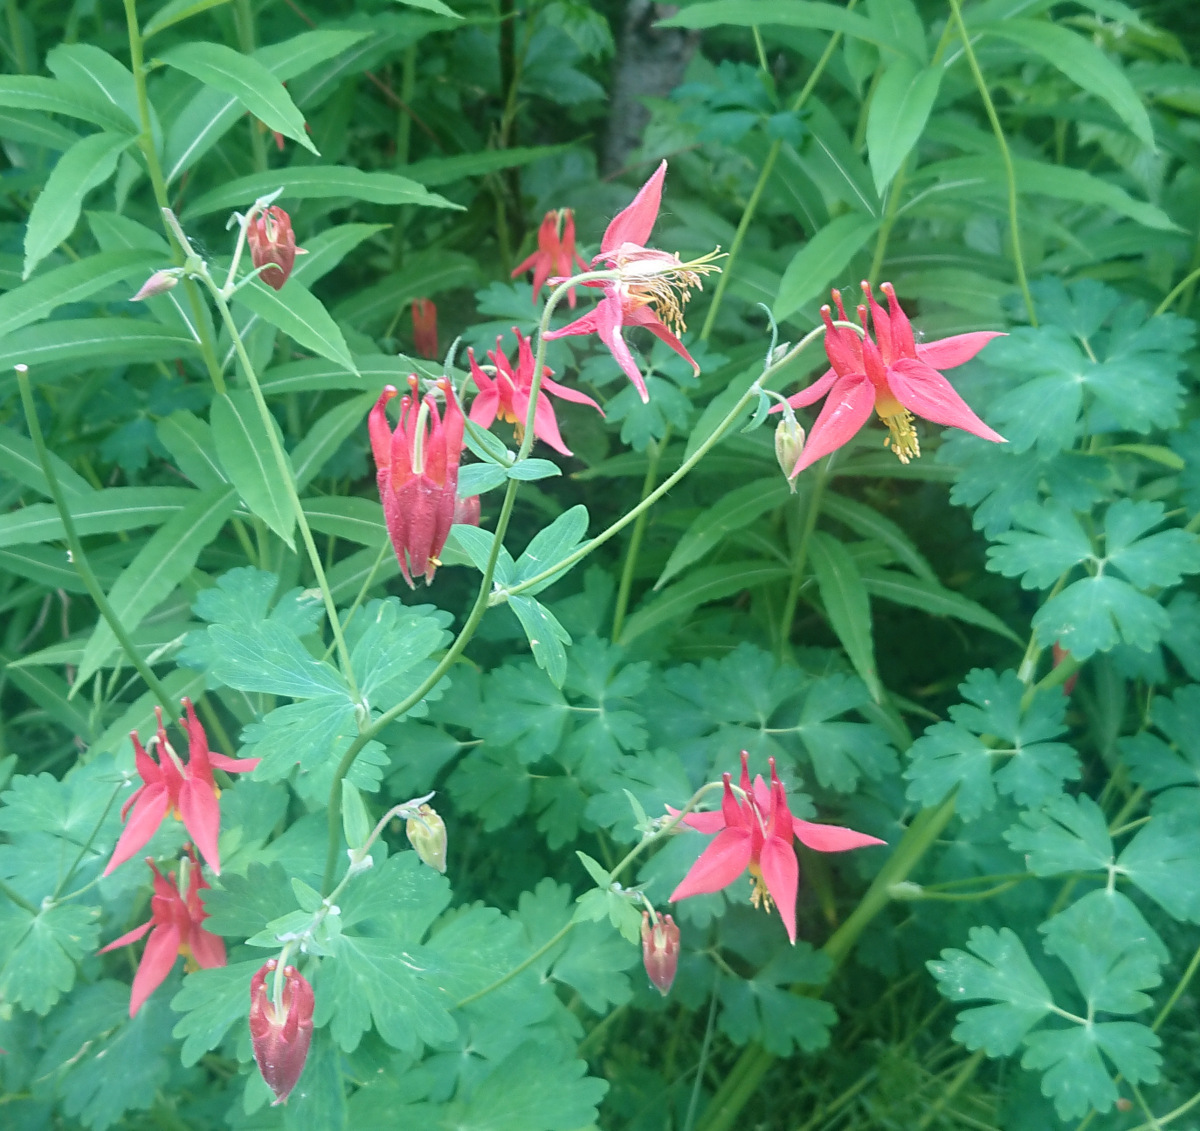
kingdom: Plantae
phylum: Tracheophyta
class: Magnoliopsida
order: Ranunculales
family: Ranunculaceae
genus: Aquilegia
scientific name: Aquilegia formosa
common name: Sitka columbine
